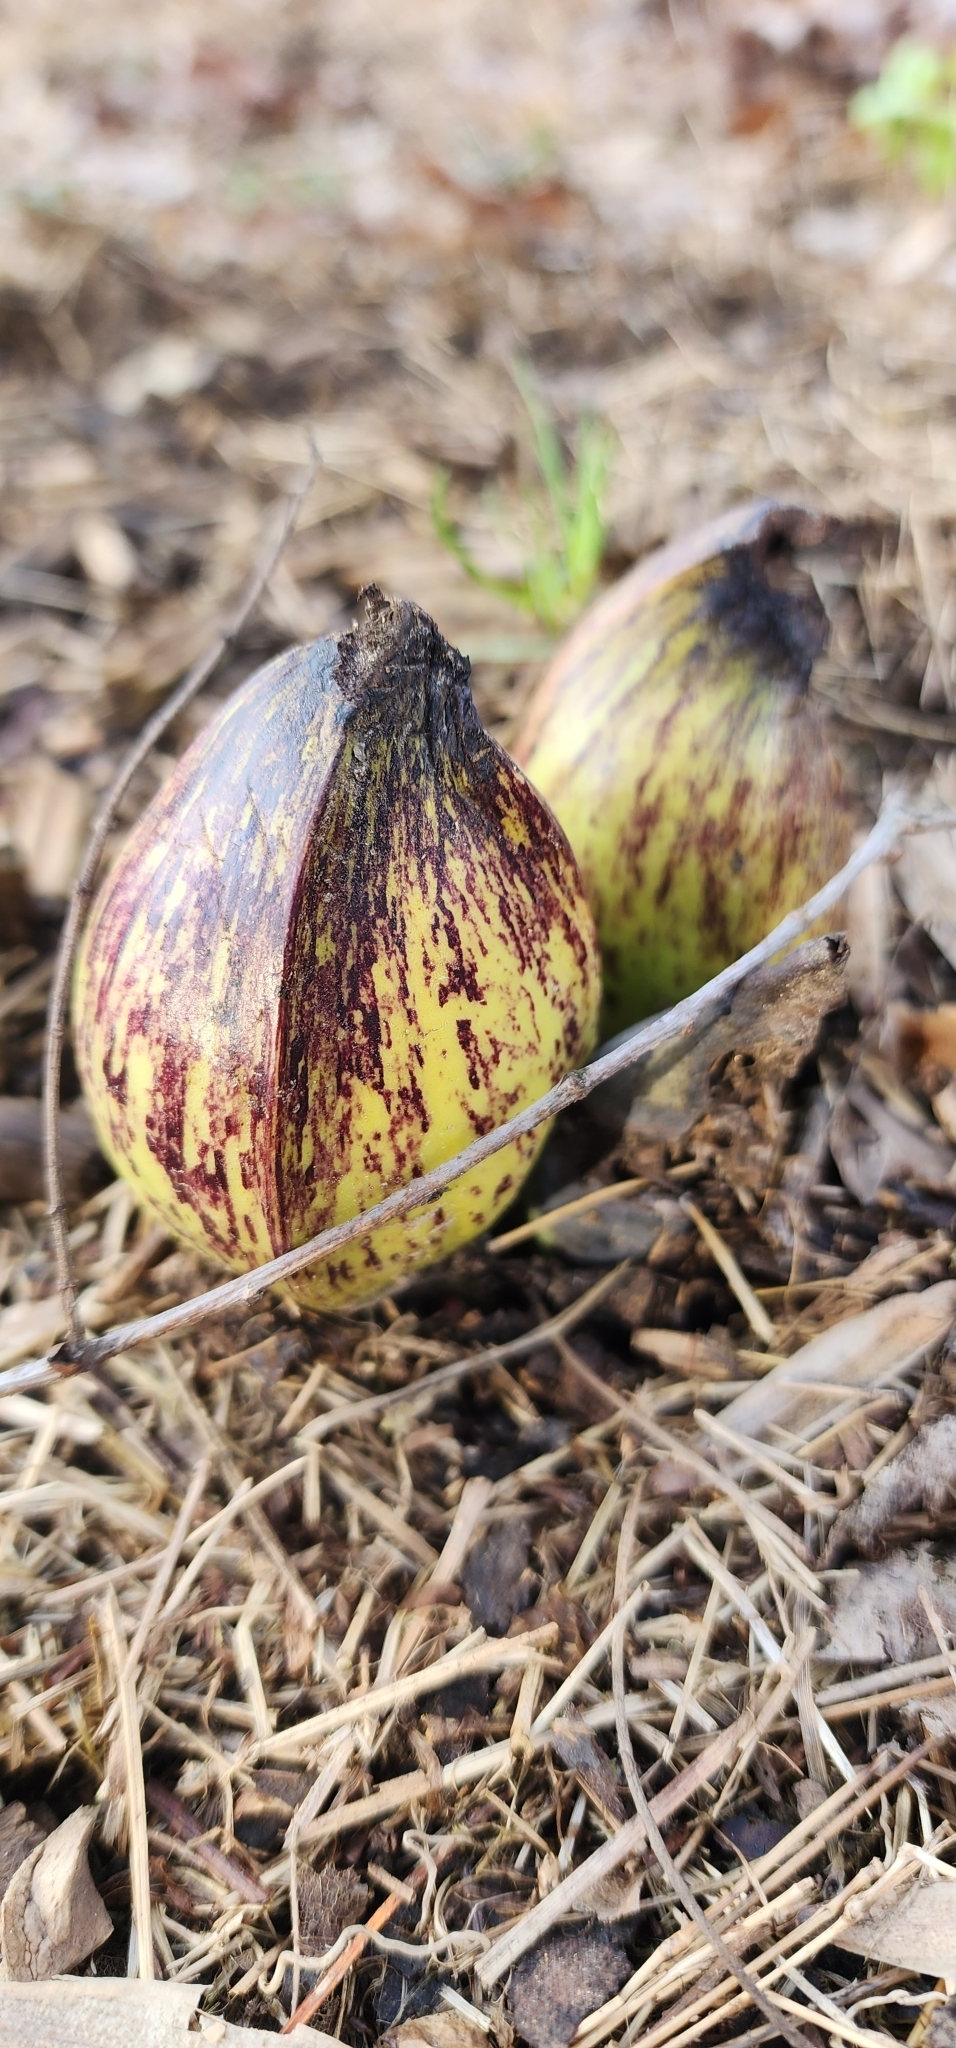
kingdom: Plantae
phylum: Tracheophyta
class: Liliopsida
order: Alismatales
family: Araceae
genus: Symplocarpus
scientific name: Symplocarpus foetidus
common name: Eastern skunk cabbage
